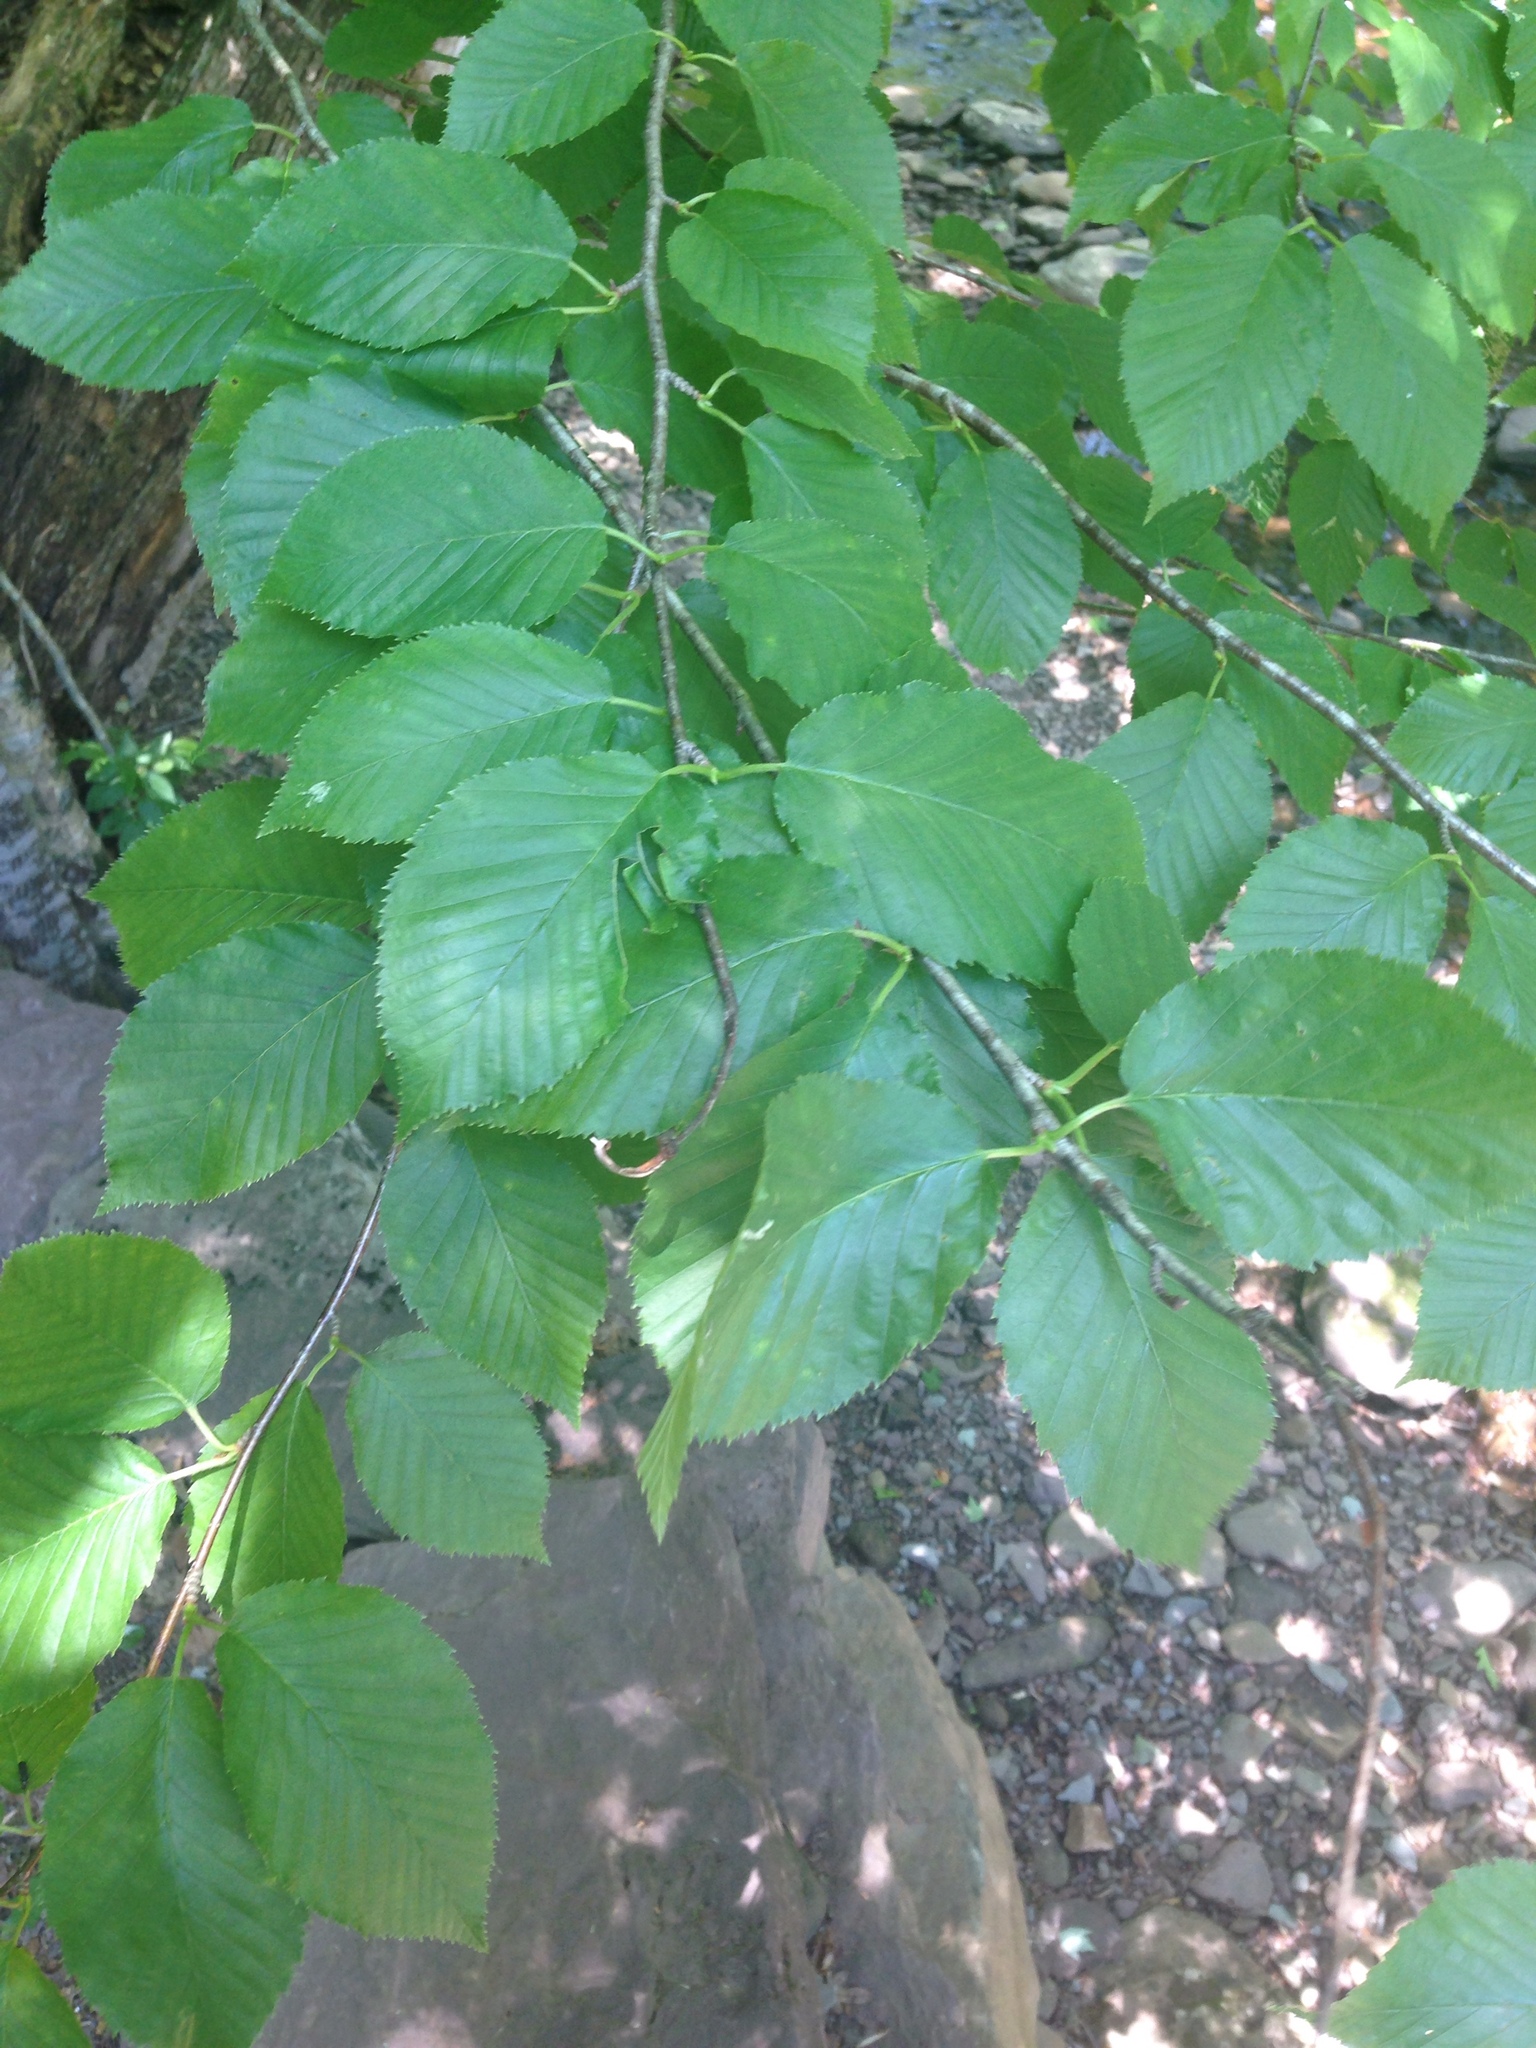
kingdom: Plantae
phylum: Tracheophyta
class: Magnoliopsida
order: Fagales
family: Betulaceae
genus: Betula
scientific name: Betula alleghaniensis
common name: Yellow birch
